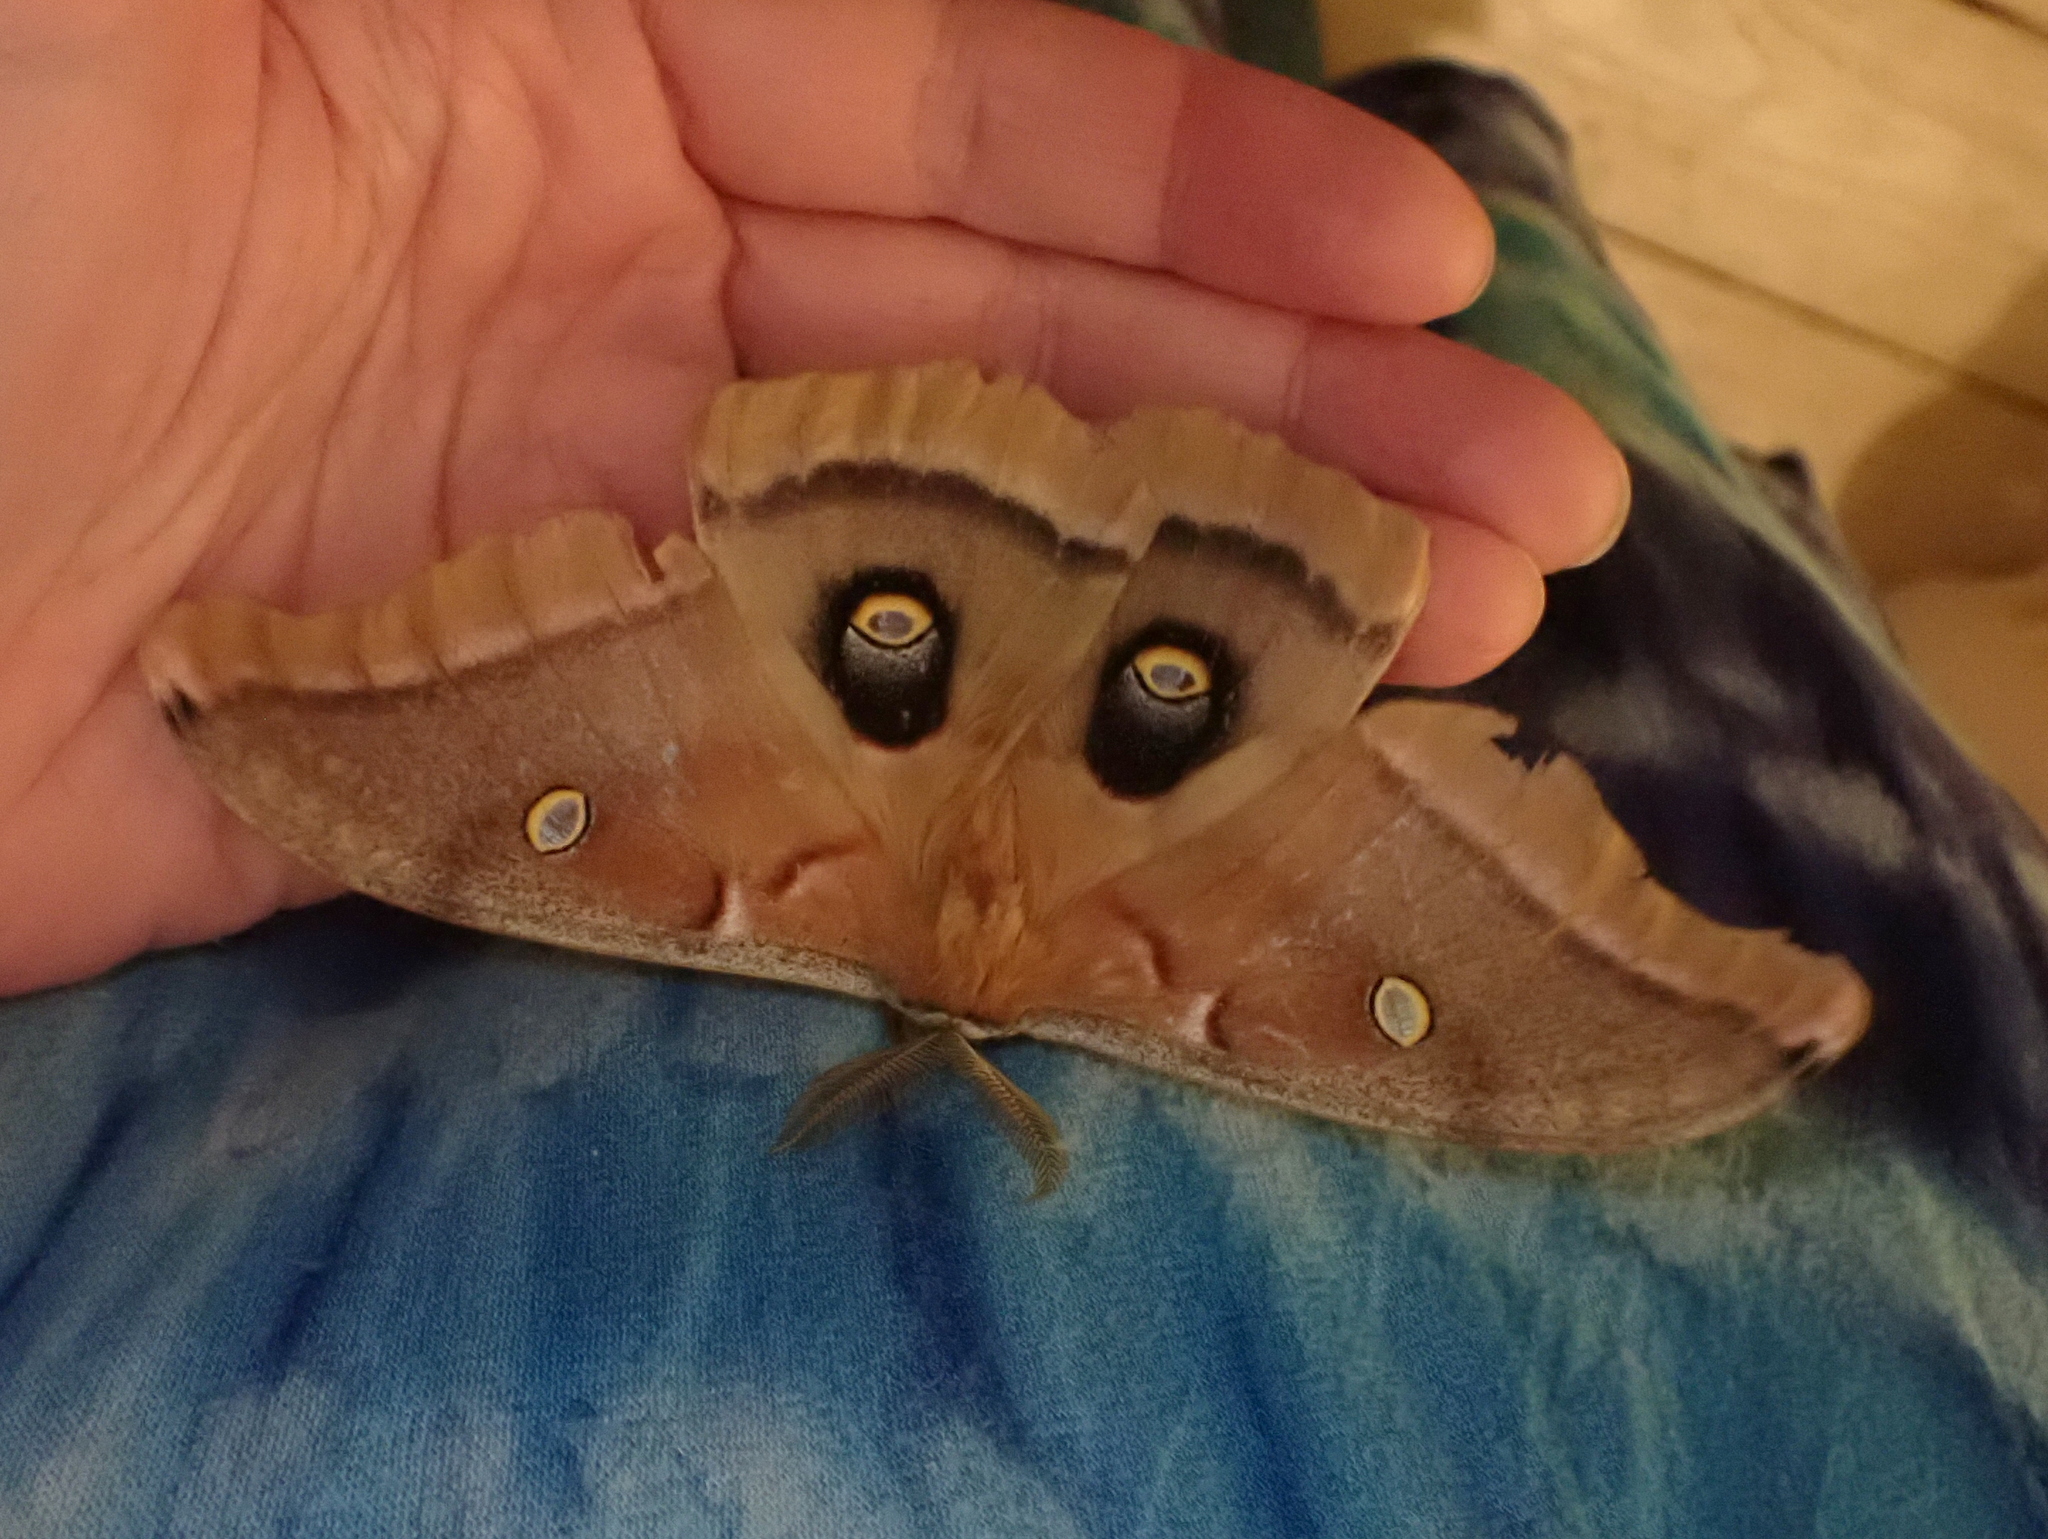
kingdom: Animalia
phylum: Arthropoda
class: Insecta
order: Lepidoptera
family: Saturniidae
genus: Antheraea
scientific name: Antheraea polyphemus
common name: Polyphemus moth
